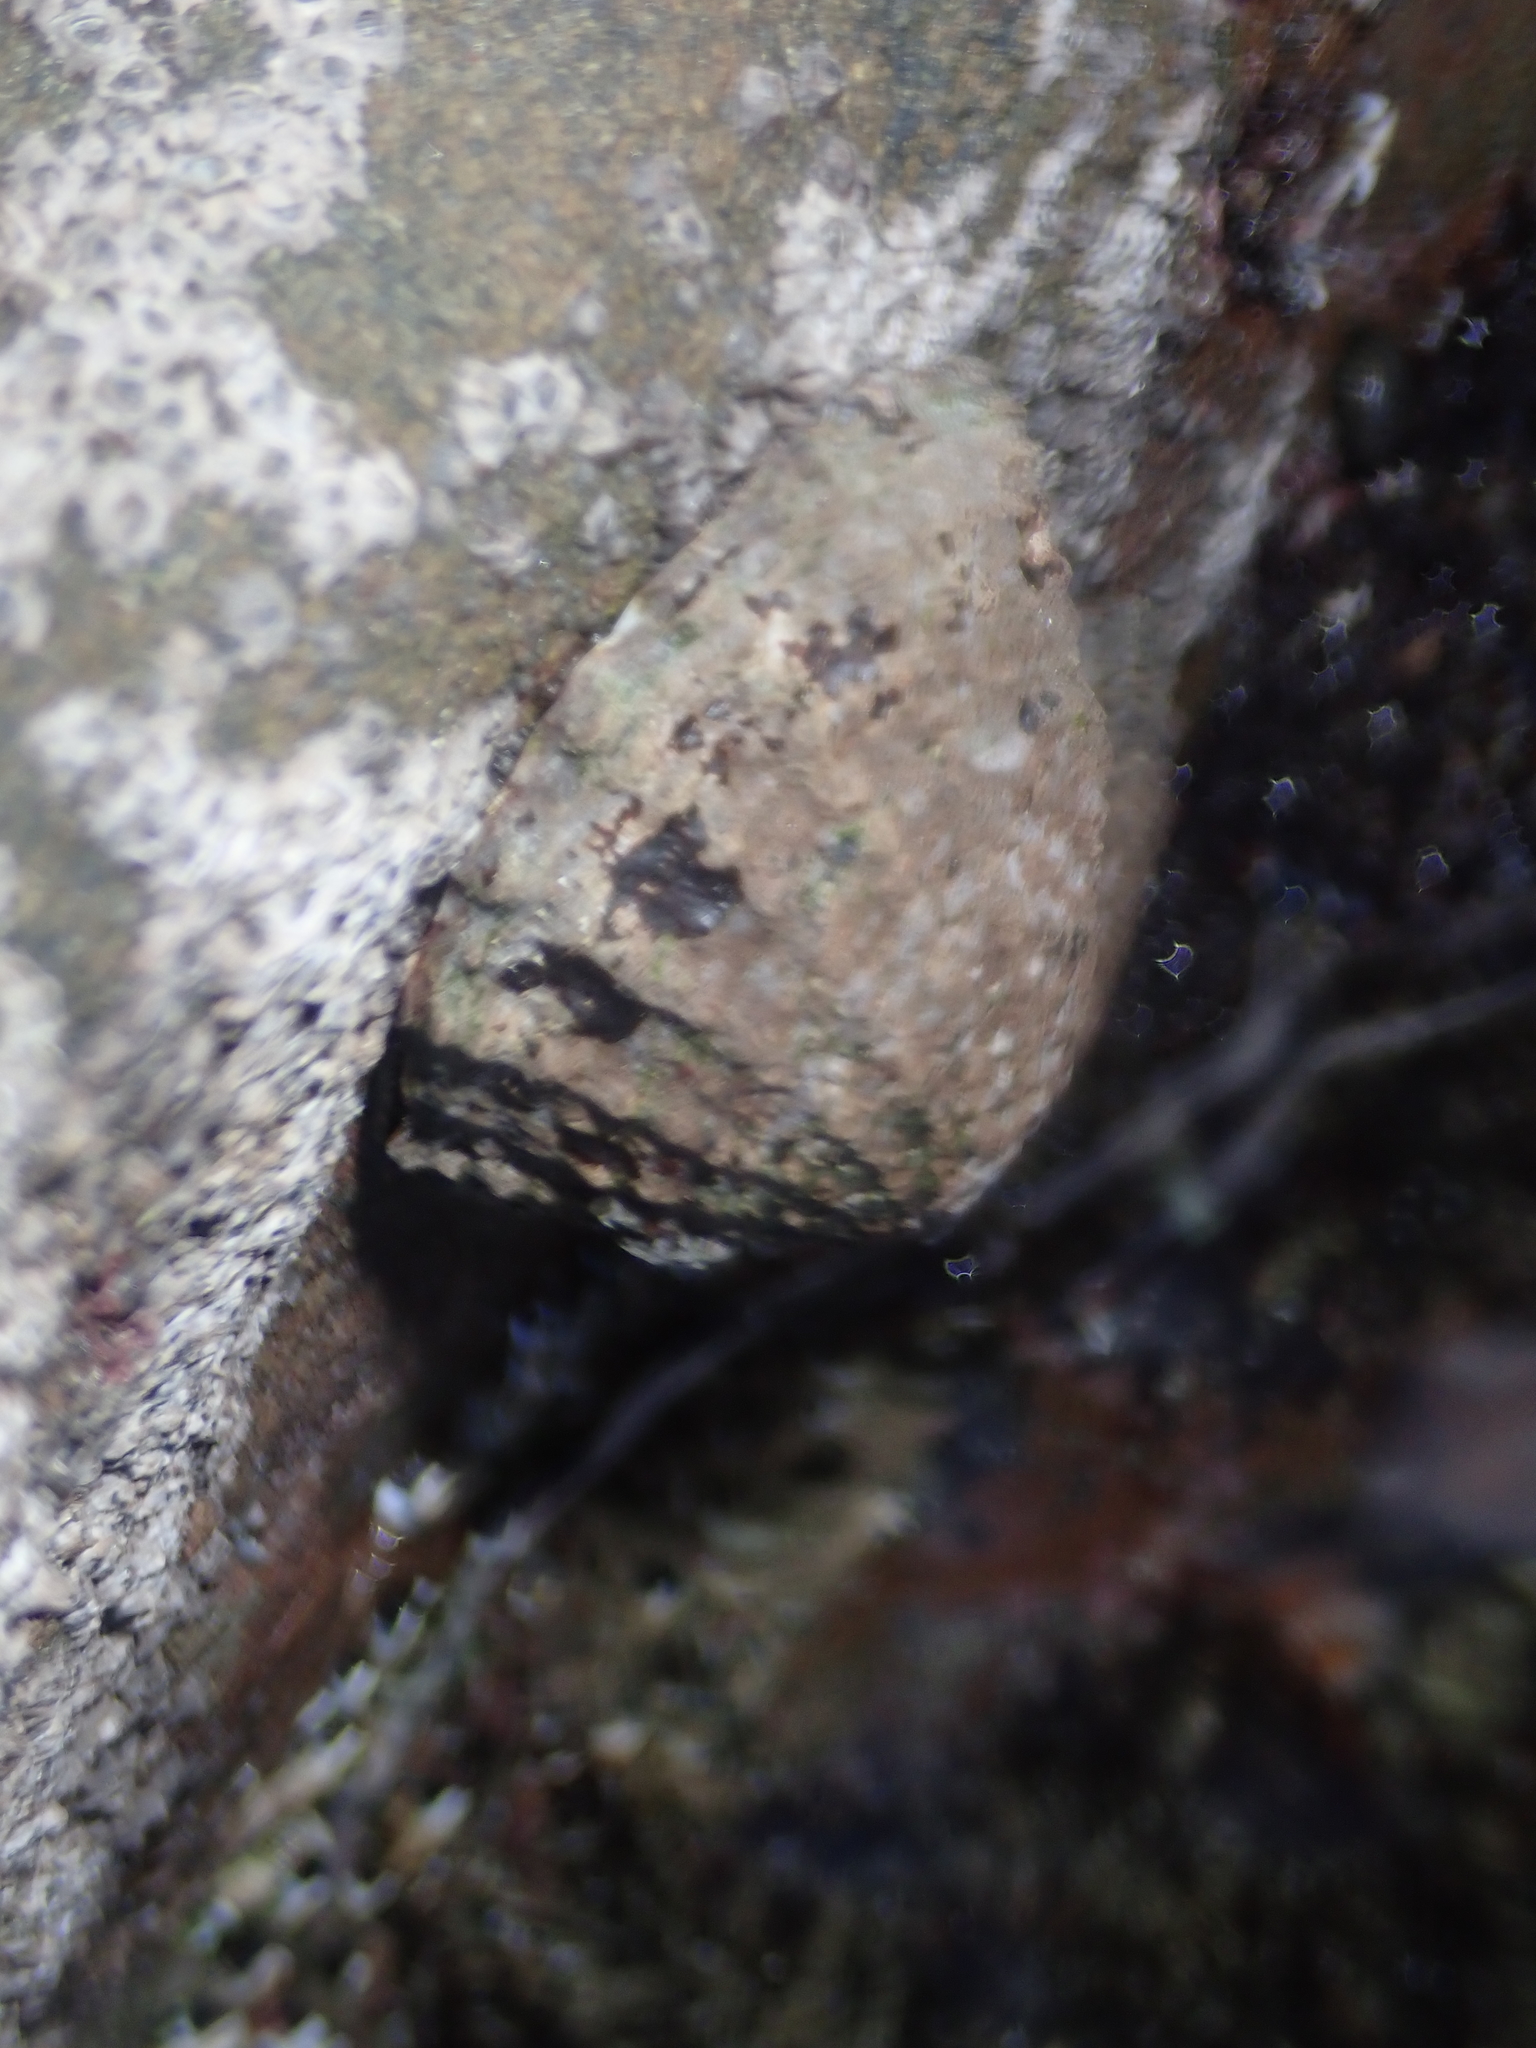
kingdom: Animalia
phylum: Mollusca
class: Gastropoda
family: Nacellidae
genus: Cellana
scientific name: Cellana denticulata
